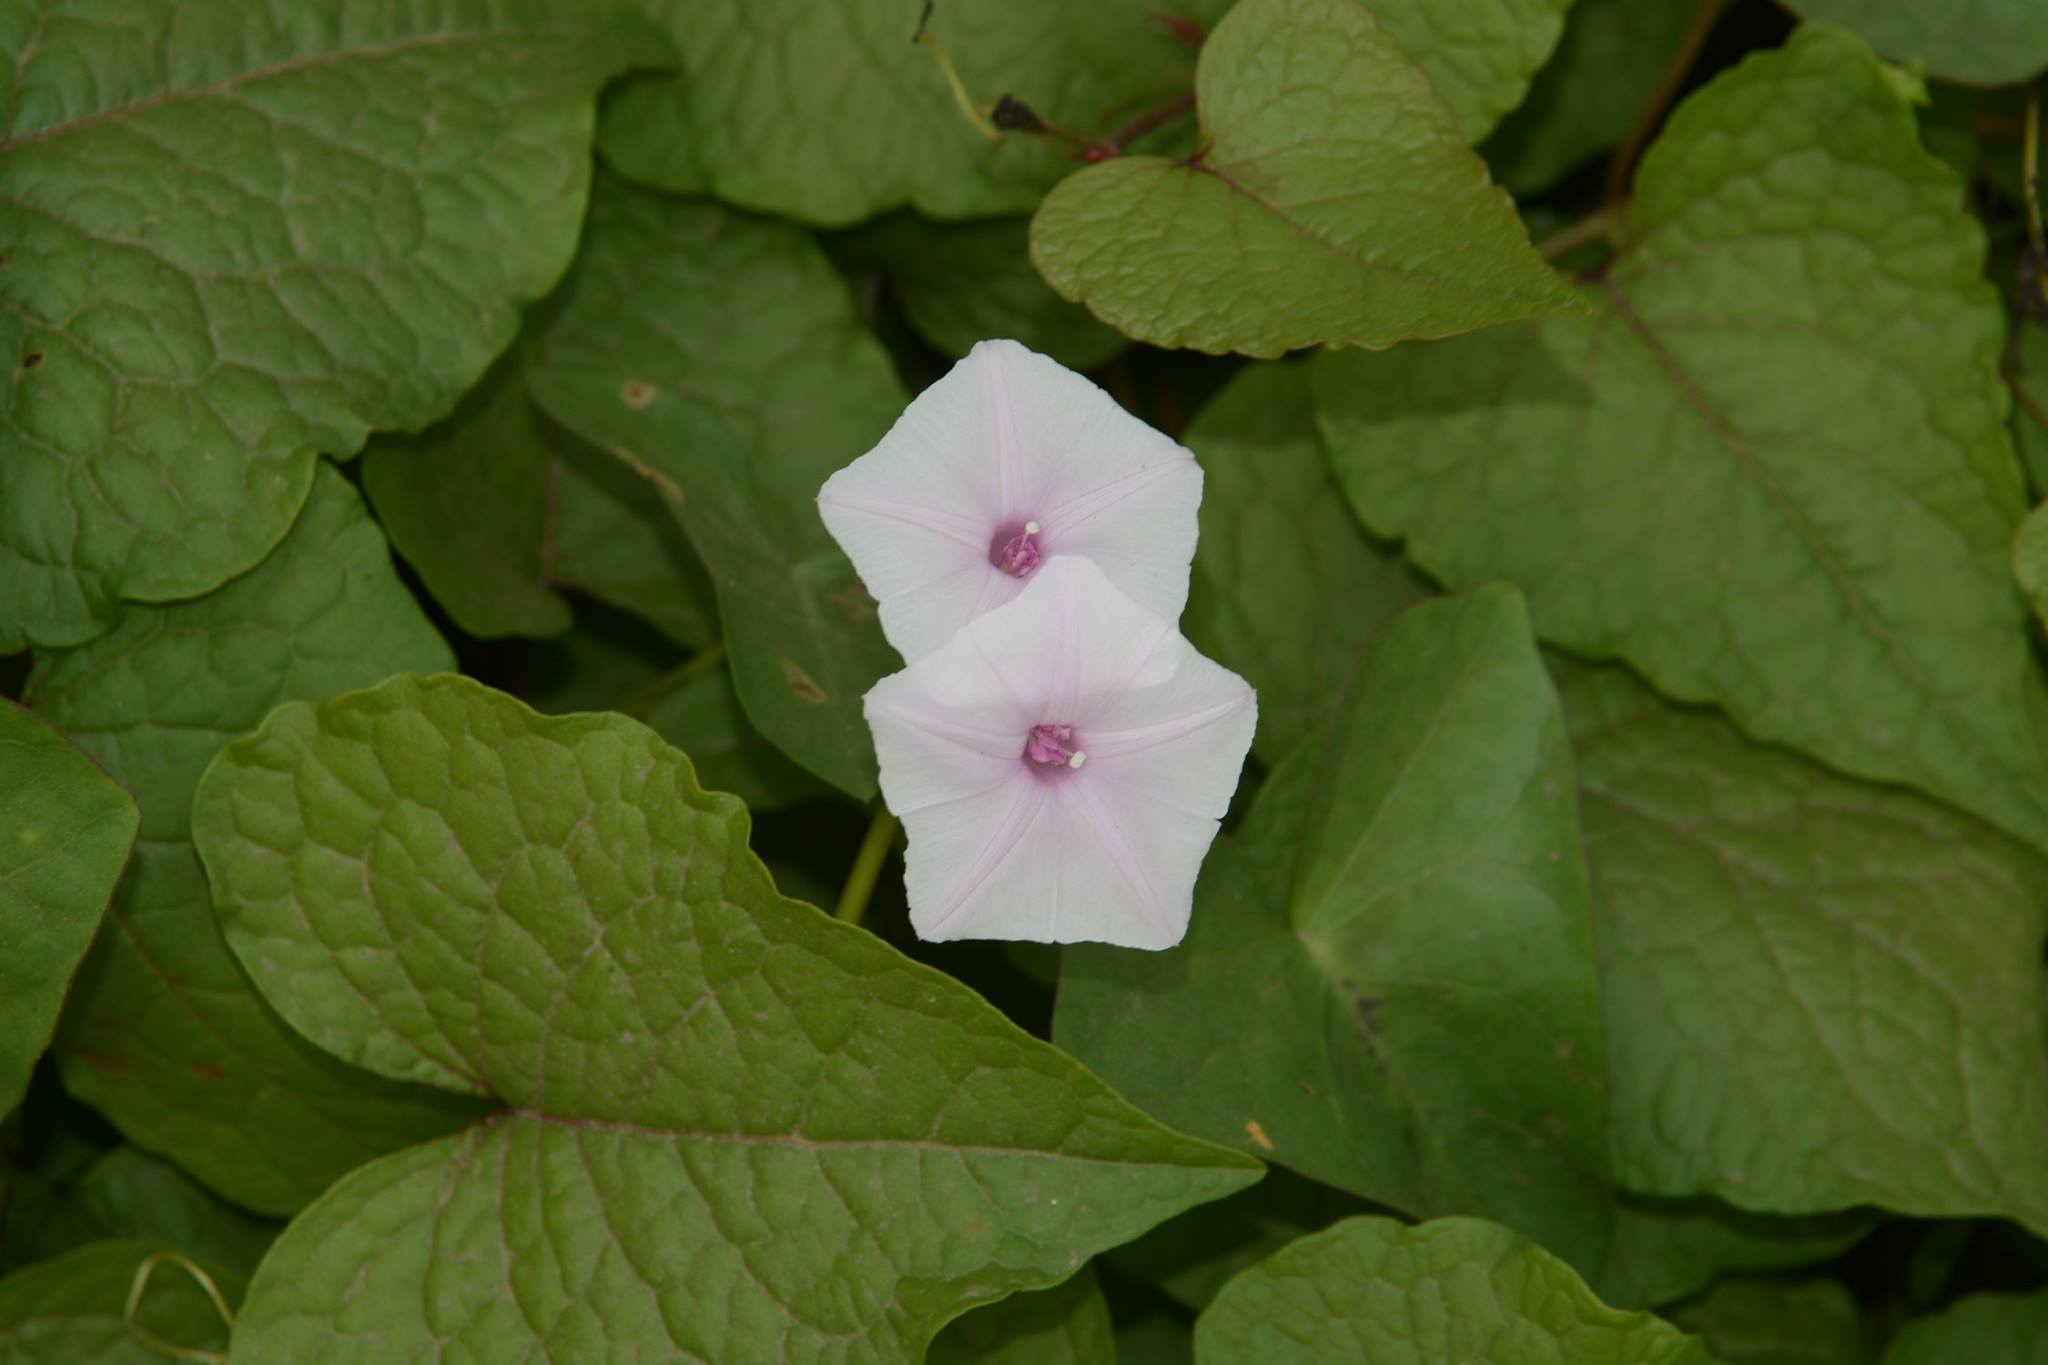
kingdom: Plantae
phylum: Tracheophyta
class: Magnoliopsida
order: Solanales
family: Convolvulaceae
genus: Ipomoea
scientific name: Ipomoea sagittifolia
